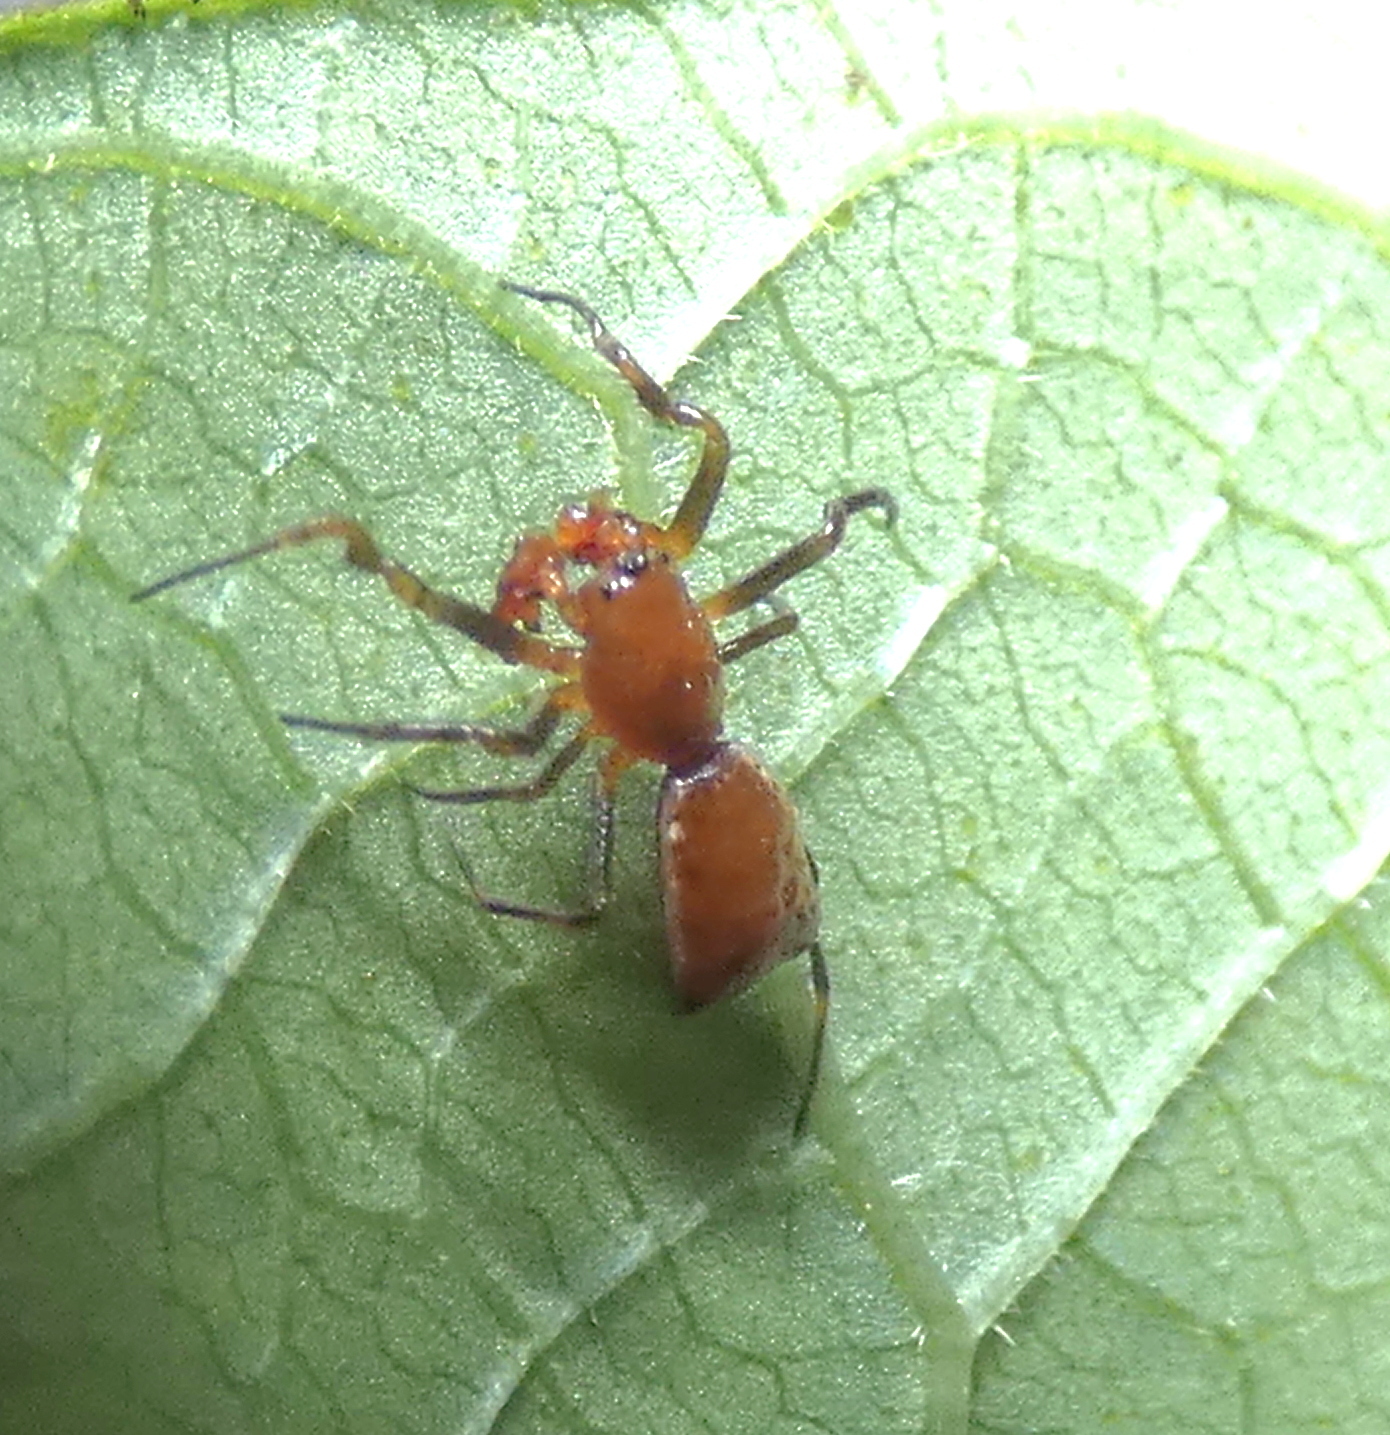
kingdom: Animalia
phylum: Arthropoda
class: Arachnida
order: Araneae
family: Araneidae
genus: Micrathena
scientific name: Micrathena picta
